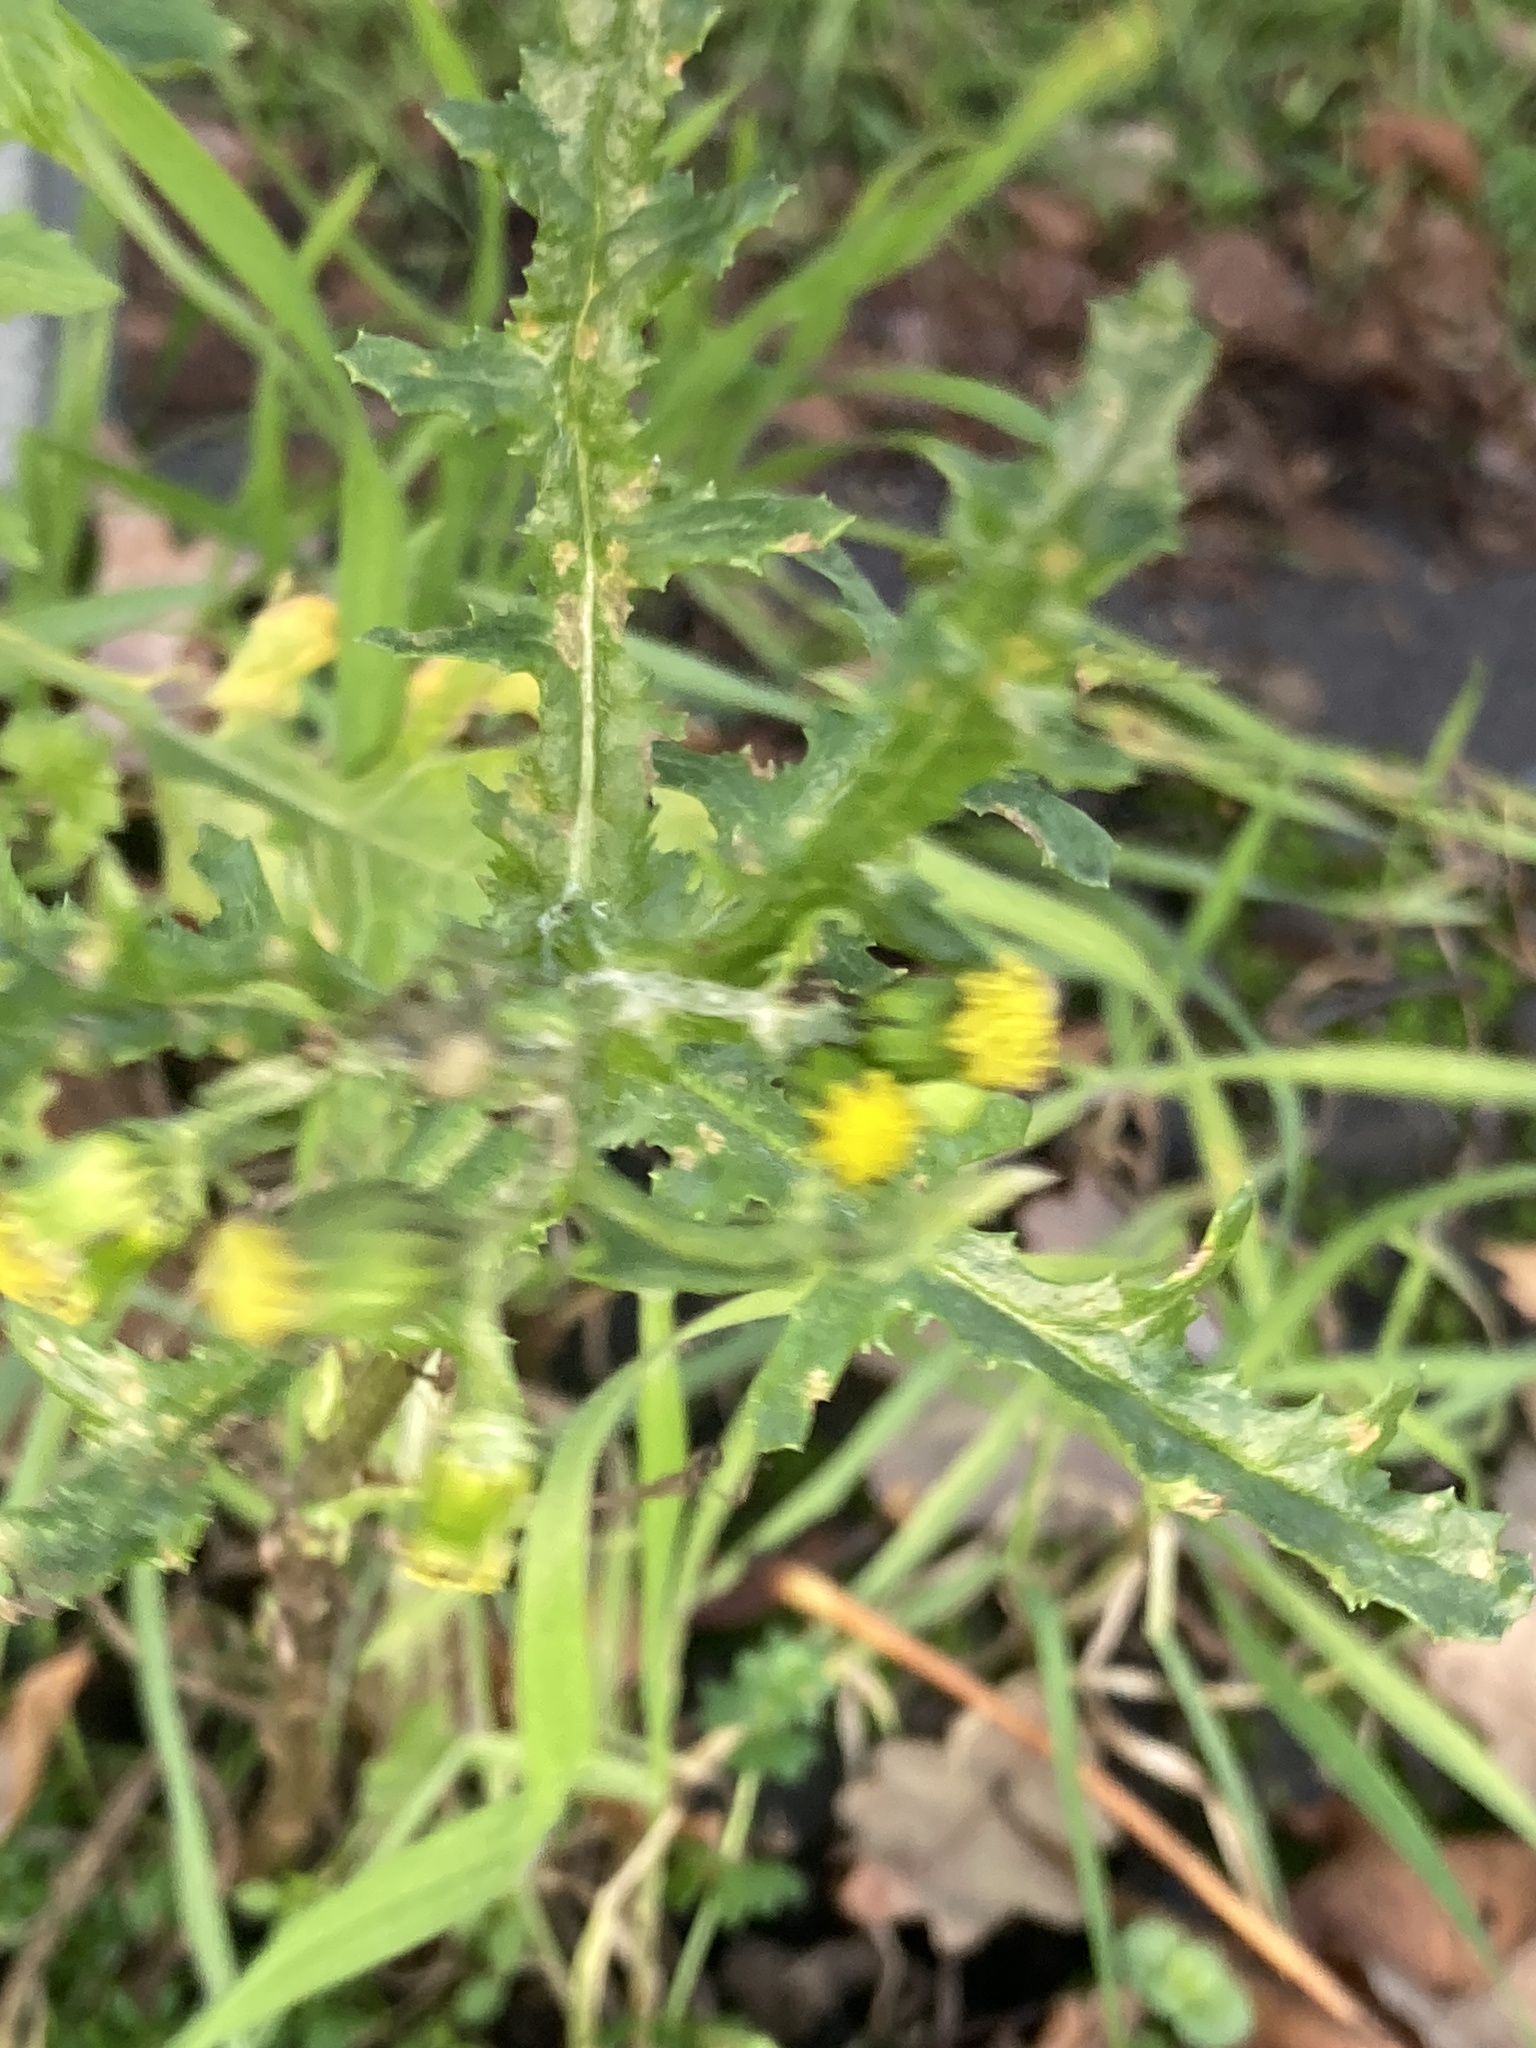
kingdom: Plantae
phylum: Tracheophyta
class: Magnoliopsida
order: Asterales
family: Asteraceae
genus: Senecio
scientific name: Senecio vulgaris
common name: Old-man-in-the-spring
